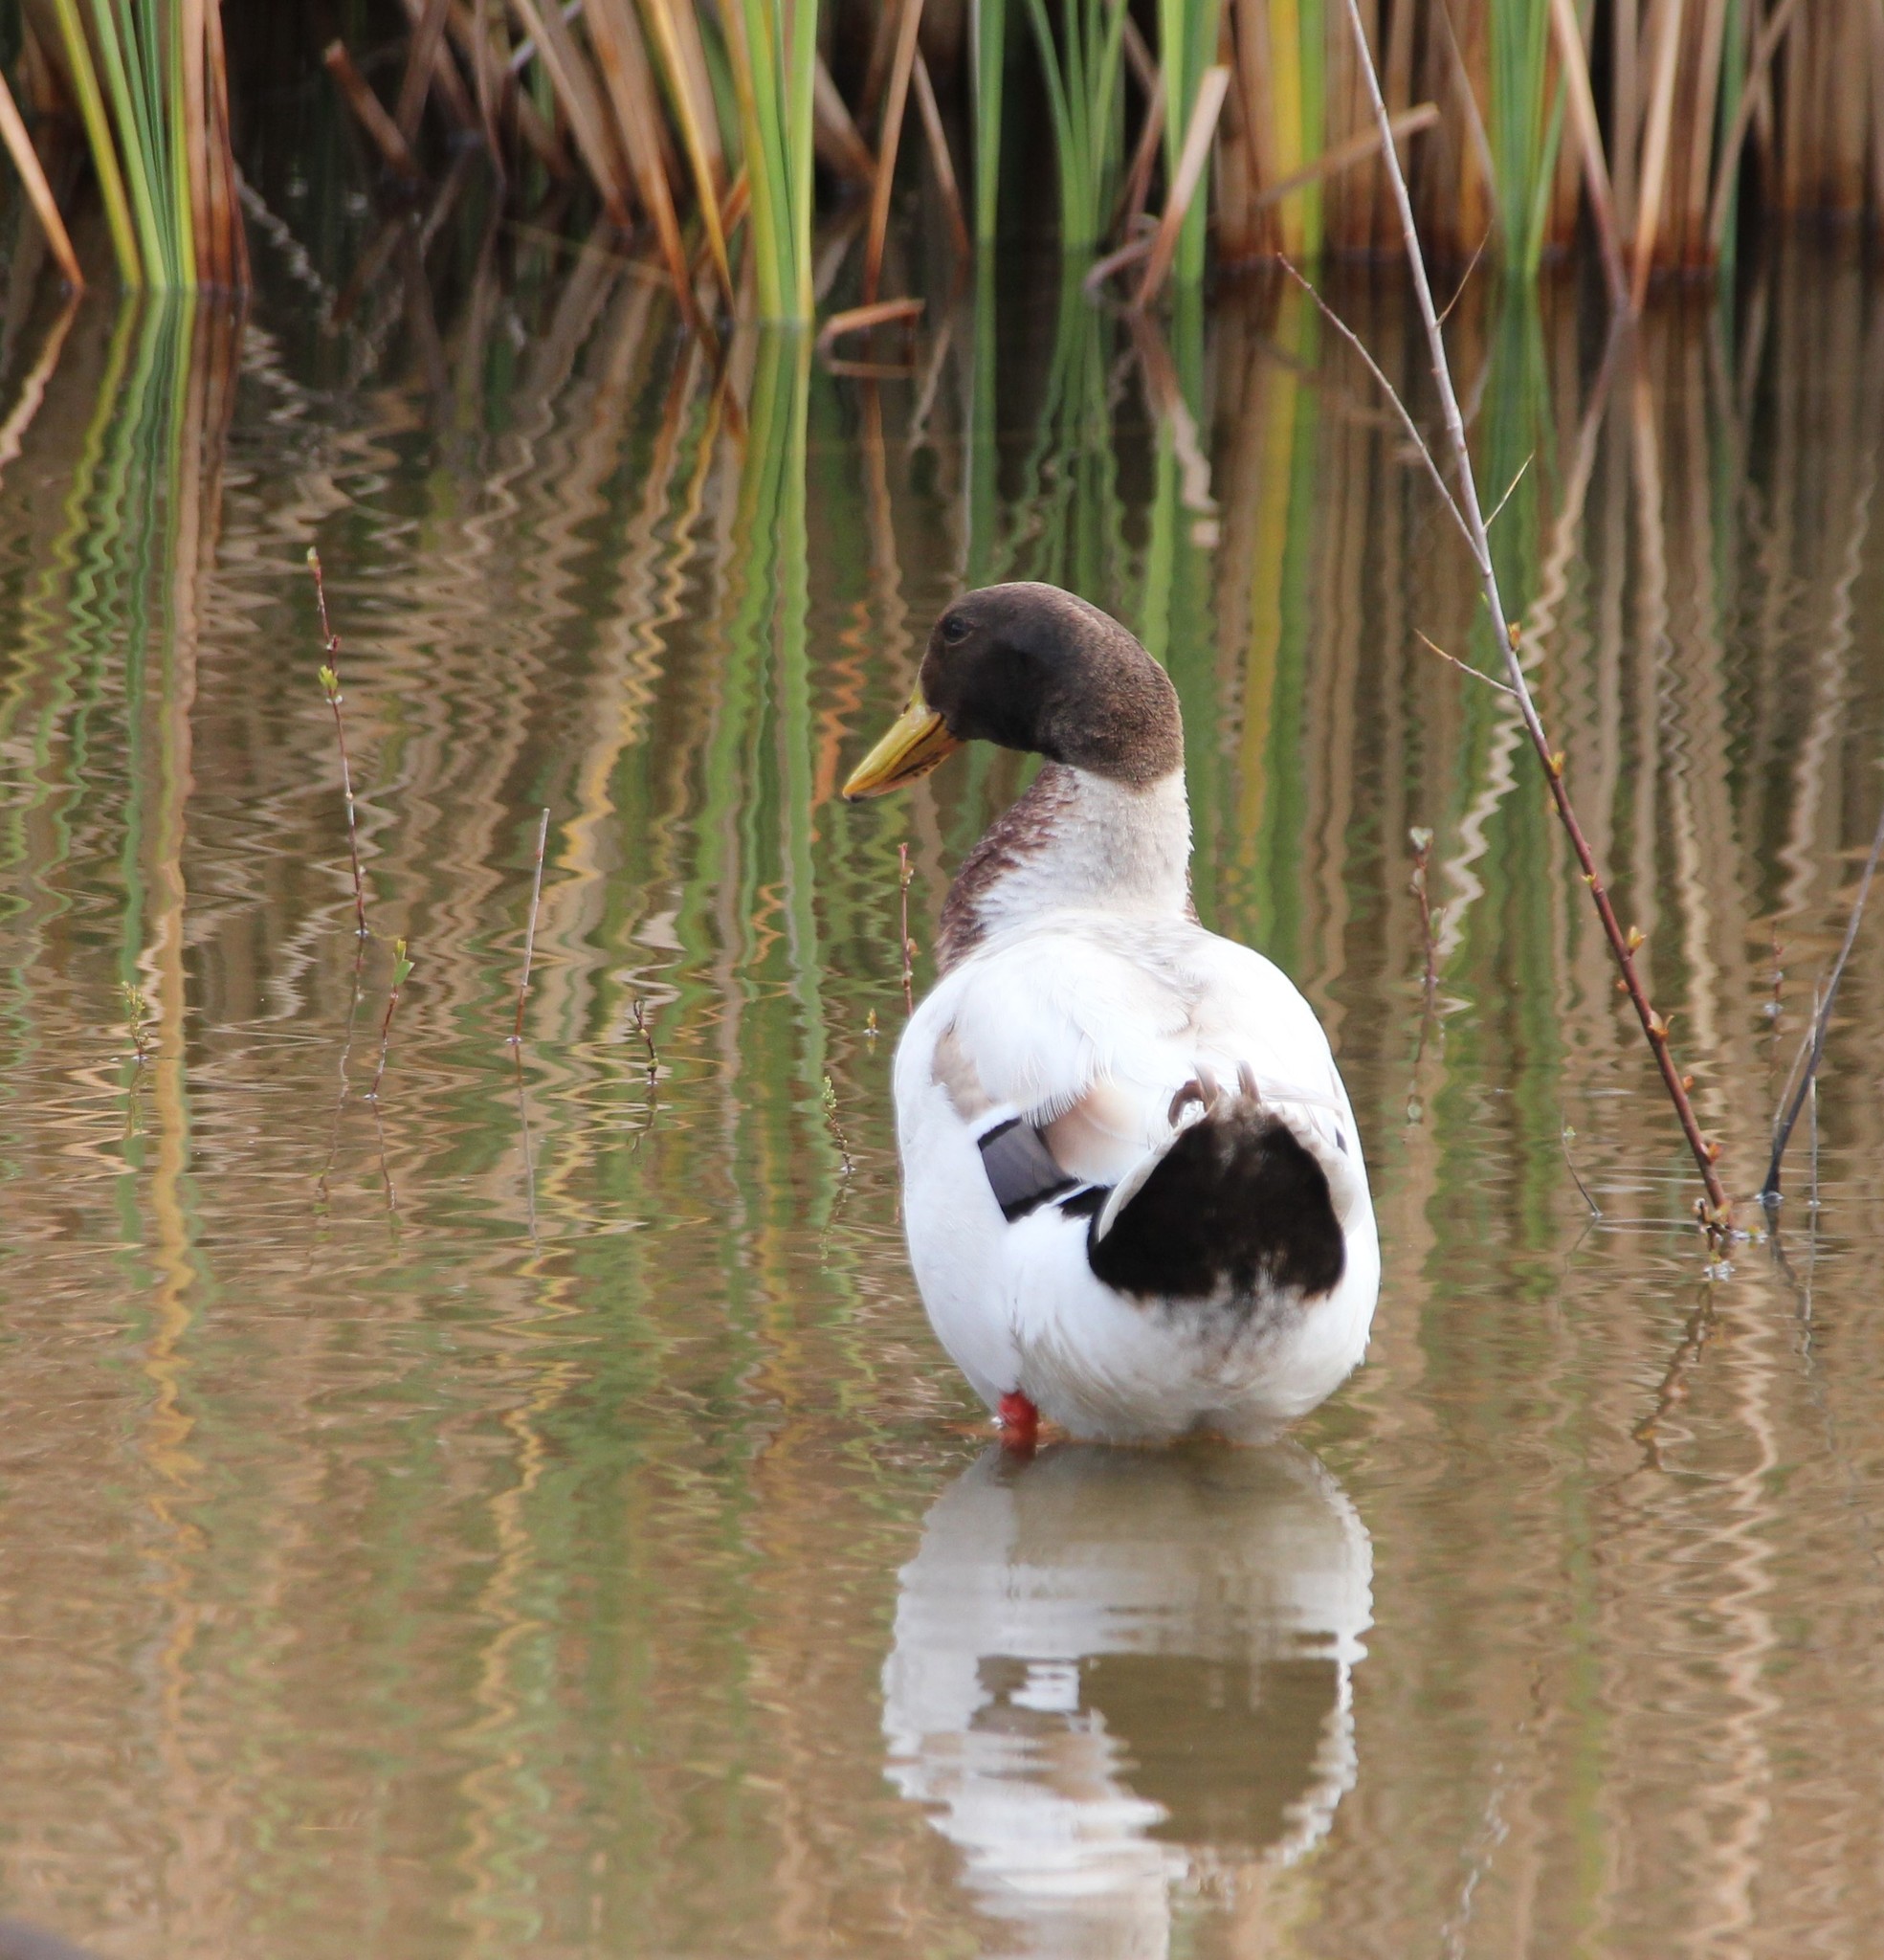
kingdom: Animalia
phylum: Chordata
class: Aves
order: Anseriformes
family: Anatidae
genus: Anas
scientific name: Anas platyrhynchos
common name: Mallard
